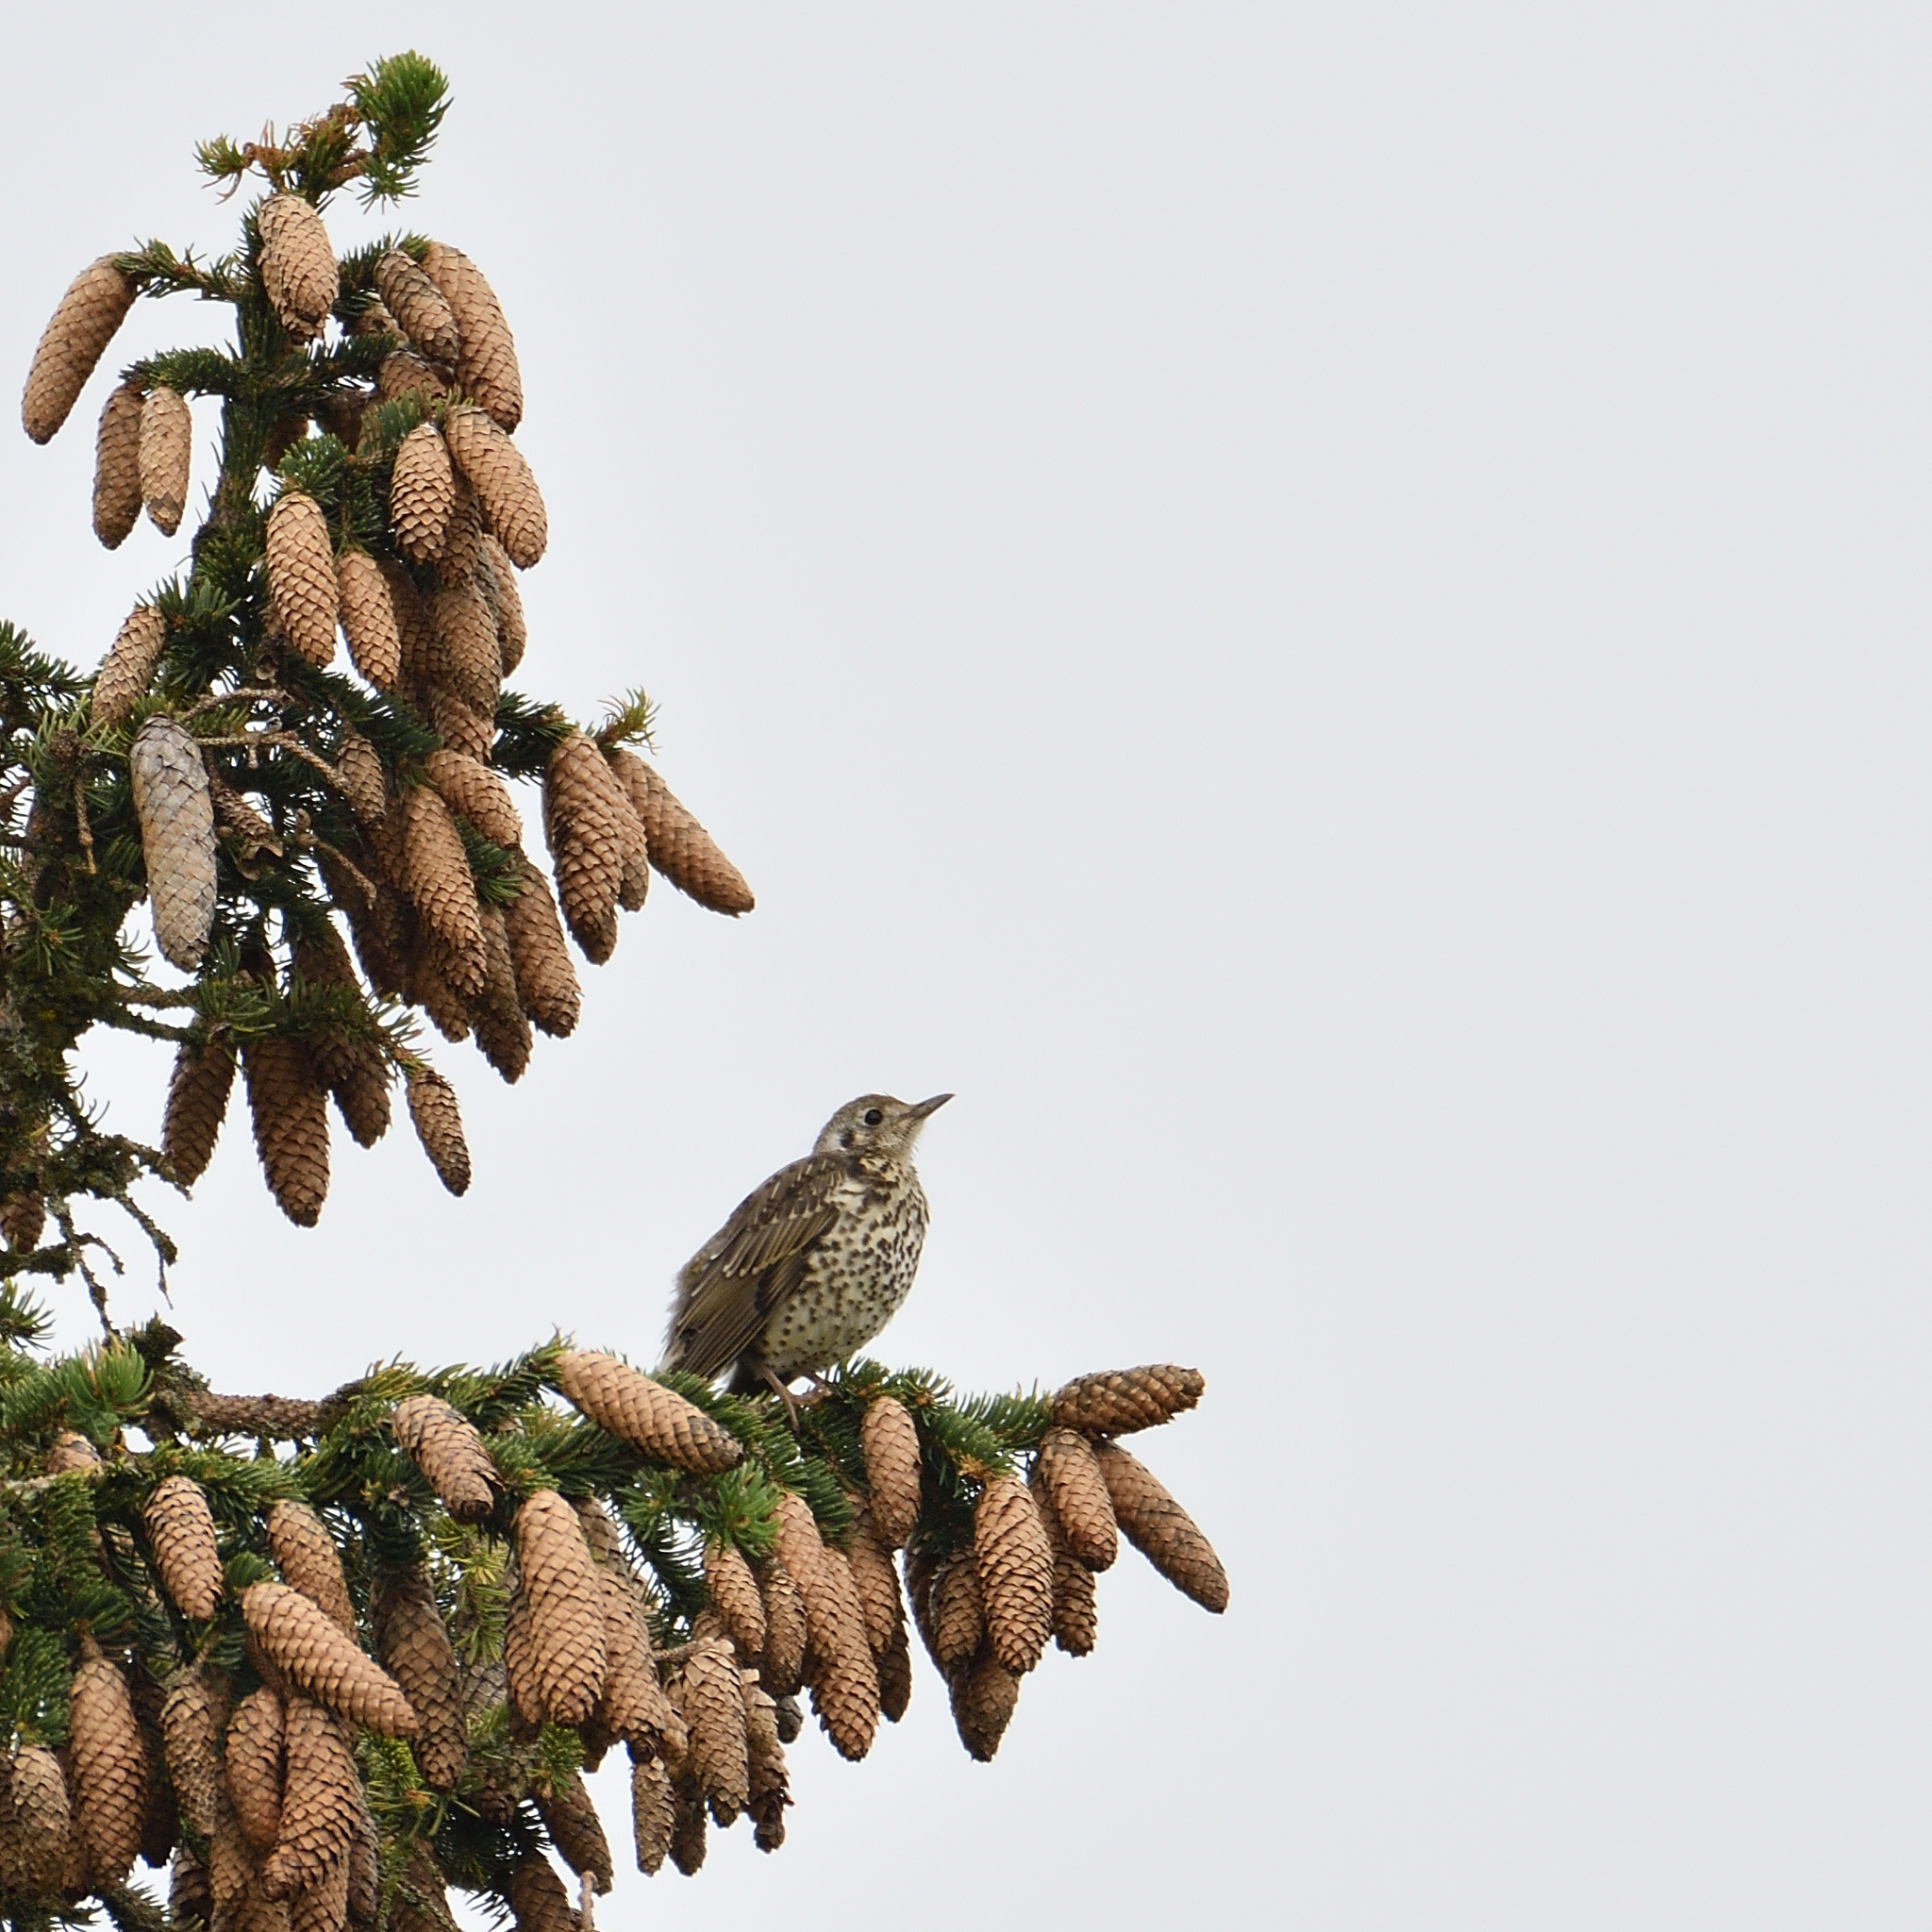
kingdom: Animalia
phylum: Chordata
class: Aves
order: Passeriformes
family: Turdidae
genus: Turdus
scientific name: Turdus viscivorus
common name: Mistle thrush
